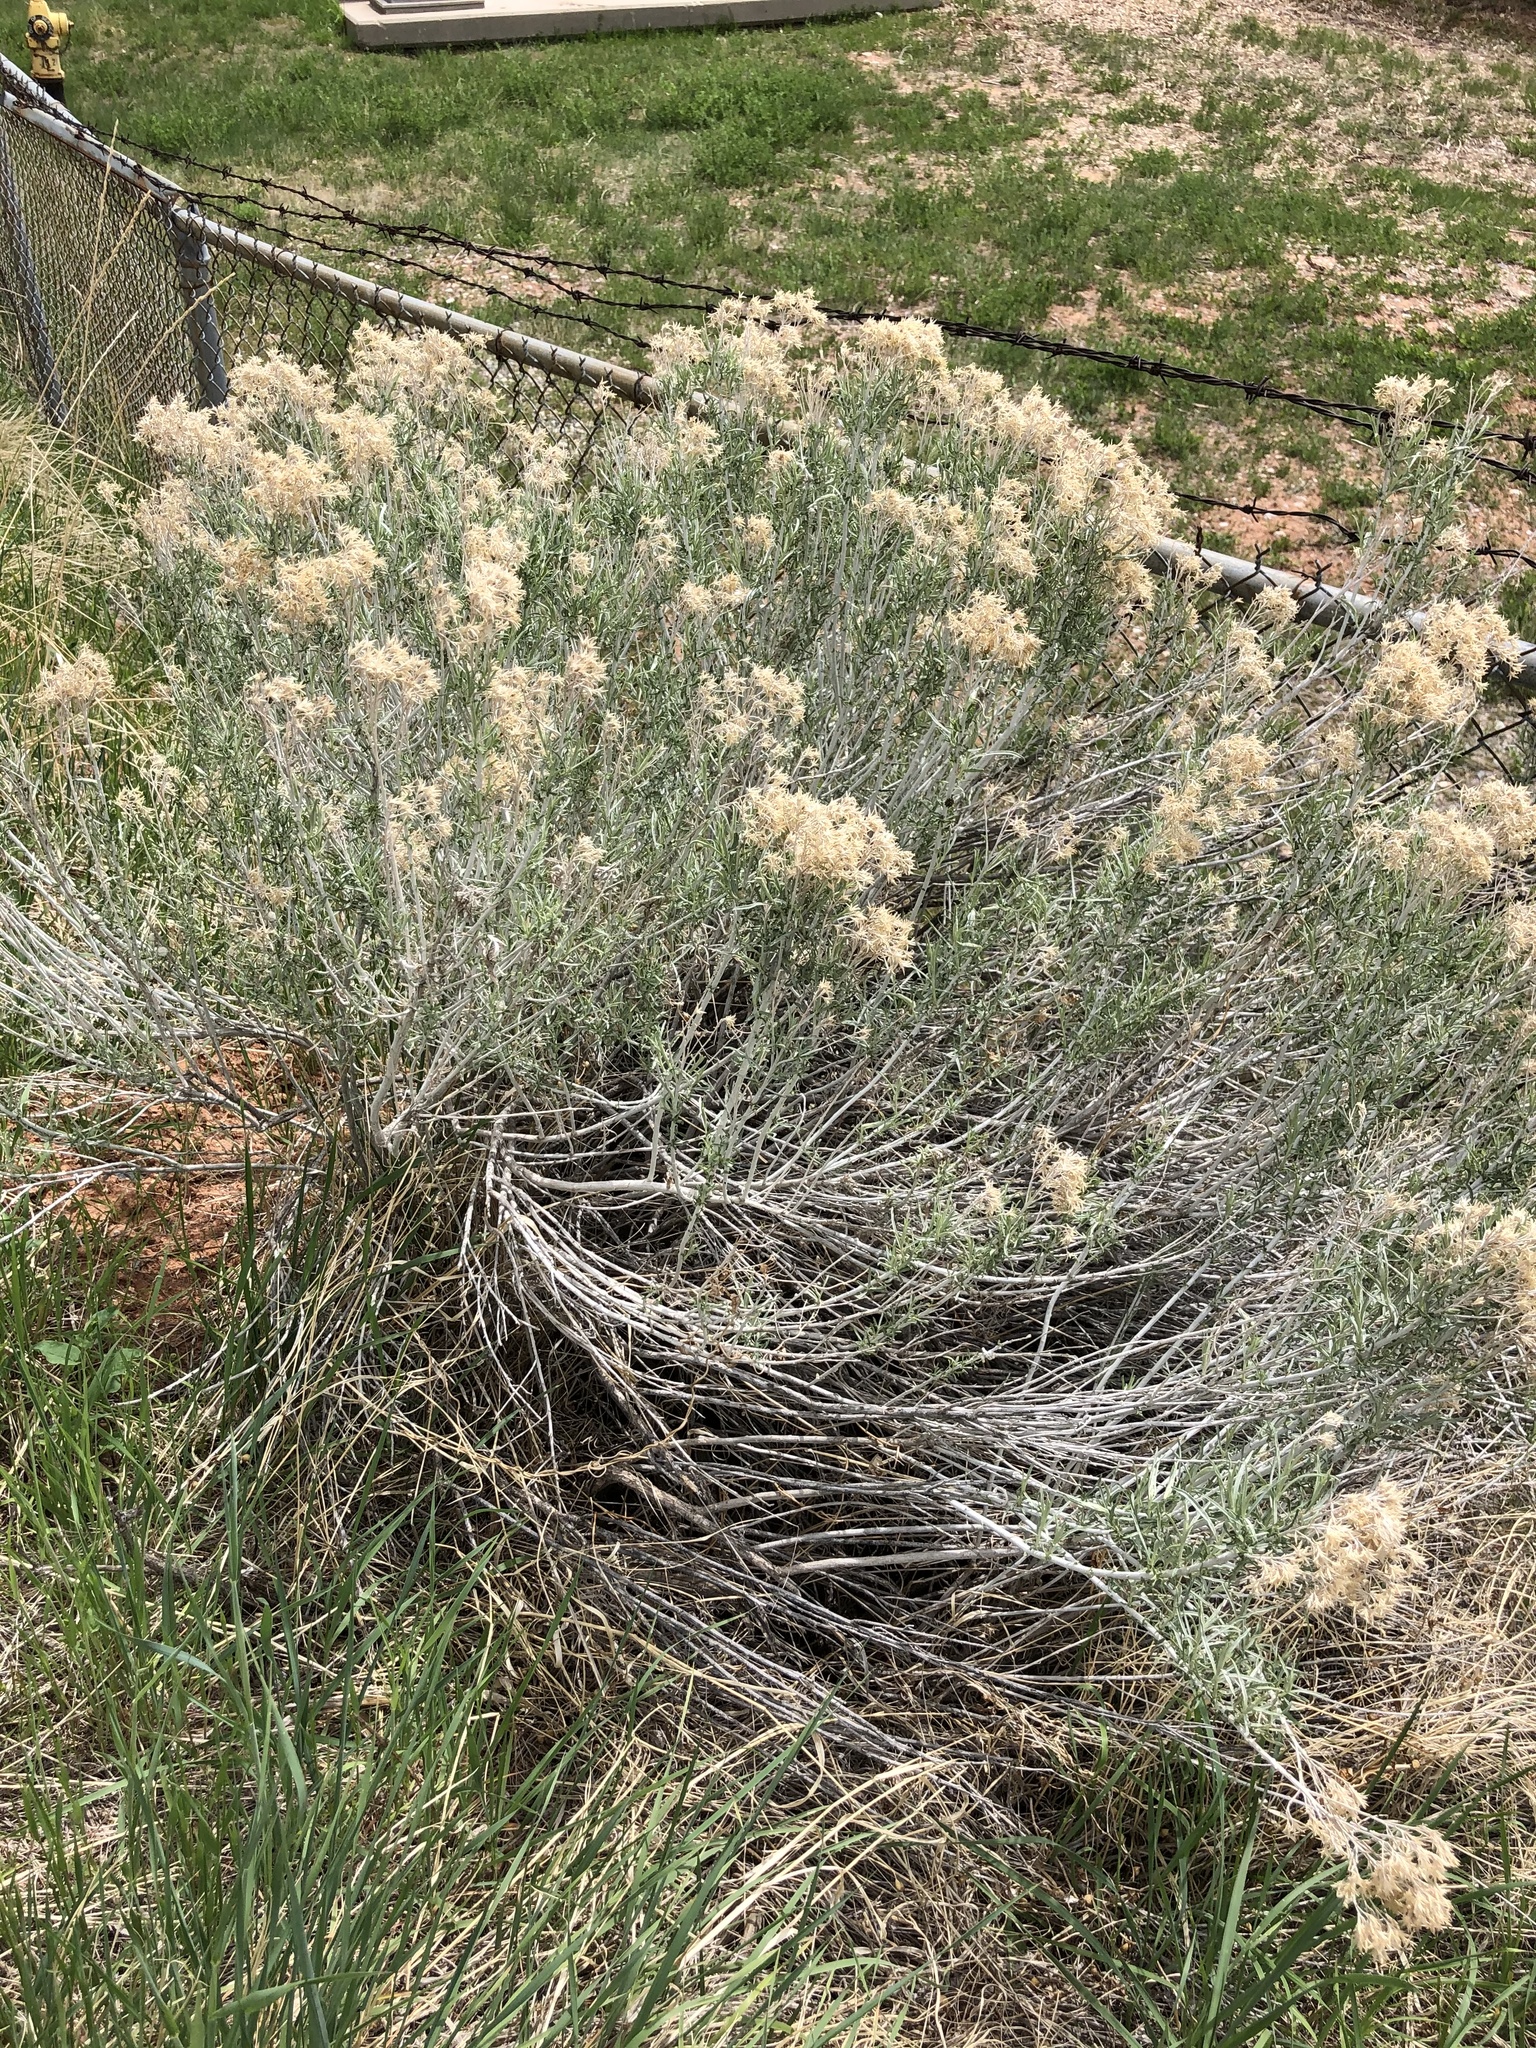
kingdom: Plantae
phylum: Tracheophyta
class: Magnoliopsida
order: Asterales
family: Asteraceae
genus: Chrysothamnus
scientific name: Chrysothamnus viscidiflorus
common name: Yellow rabbitbrush
